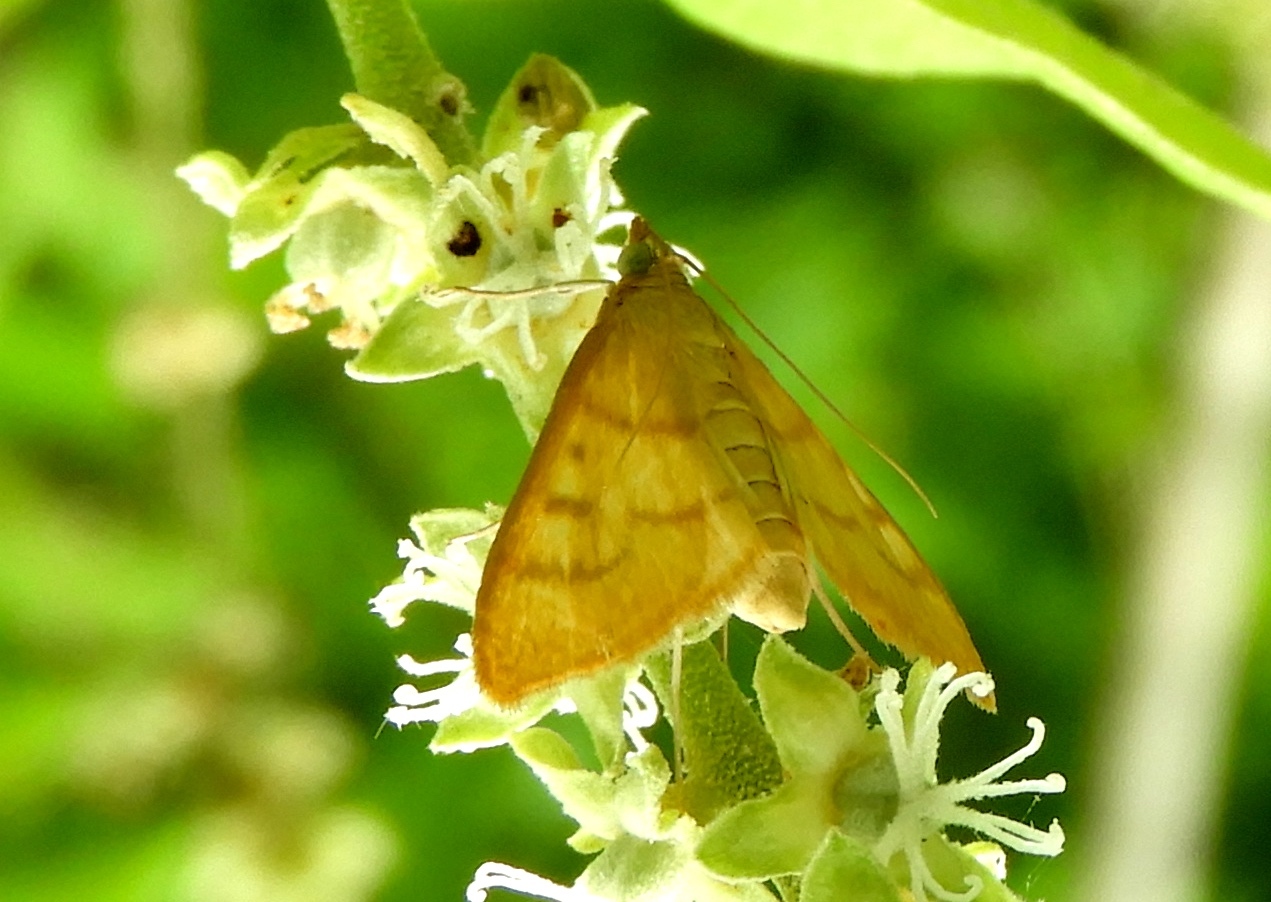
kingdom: Animalia
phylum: Arthropoda
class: Insecta
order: Lepidoptera
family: Crambidae
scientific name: Crambidae
